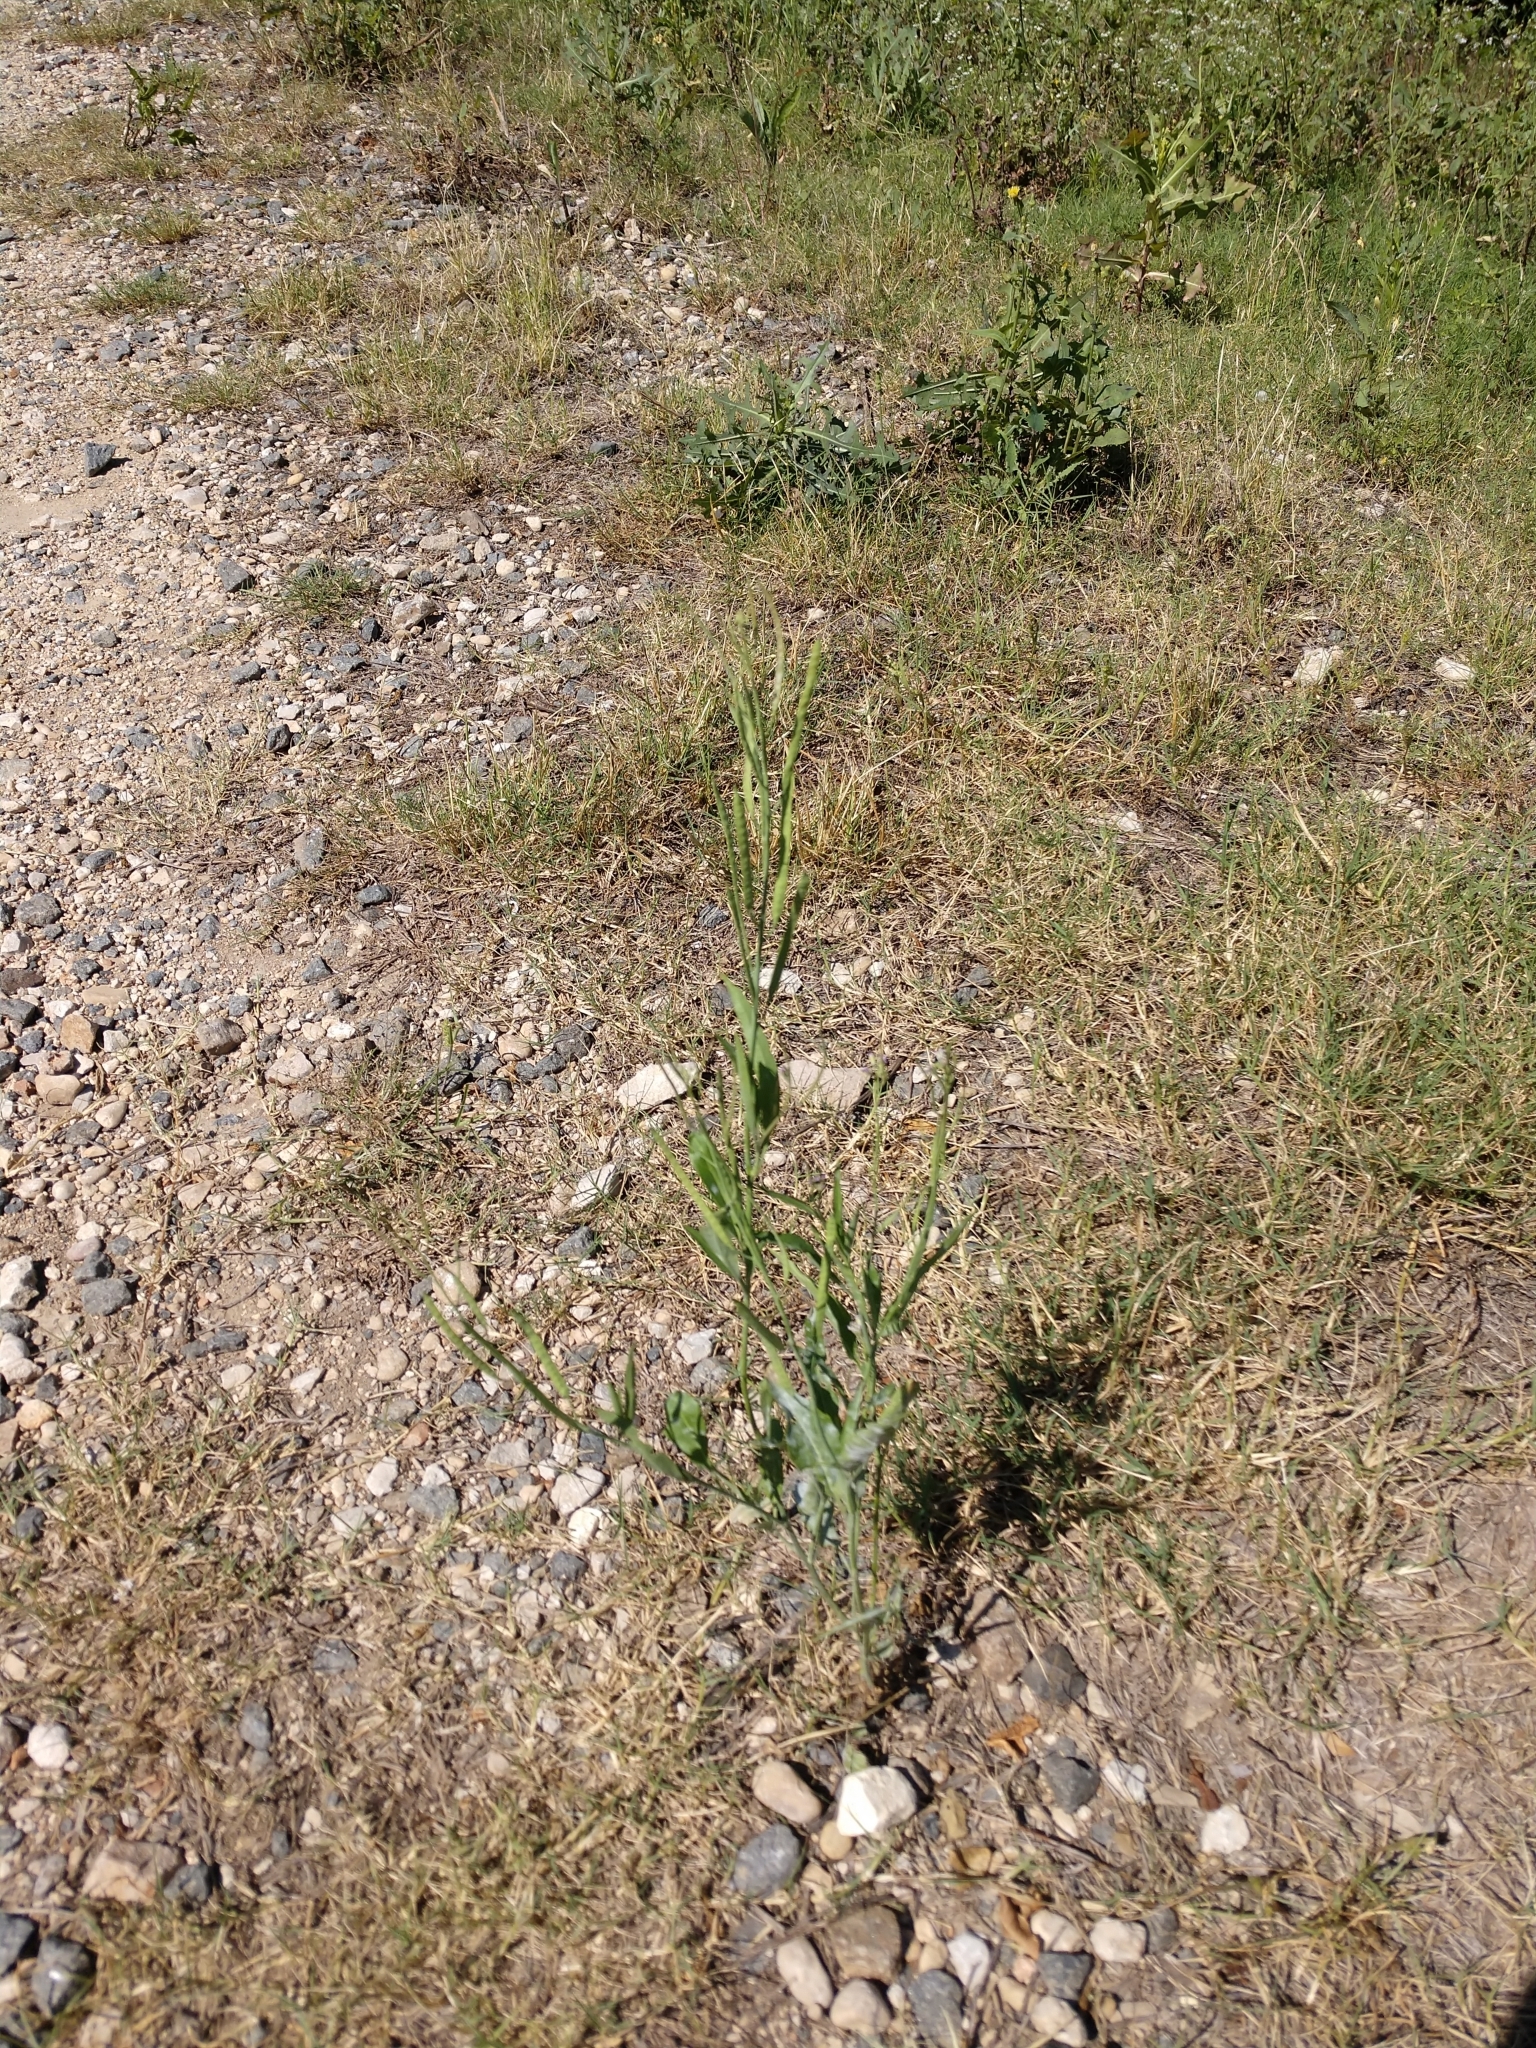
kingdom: Plantae
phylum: Tracheophyta
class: Magnoliopsida
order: Brassicales
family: Brassicaceae
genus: Streptanthus
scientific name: Streptanthus petiolaris
